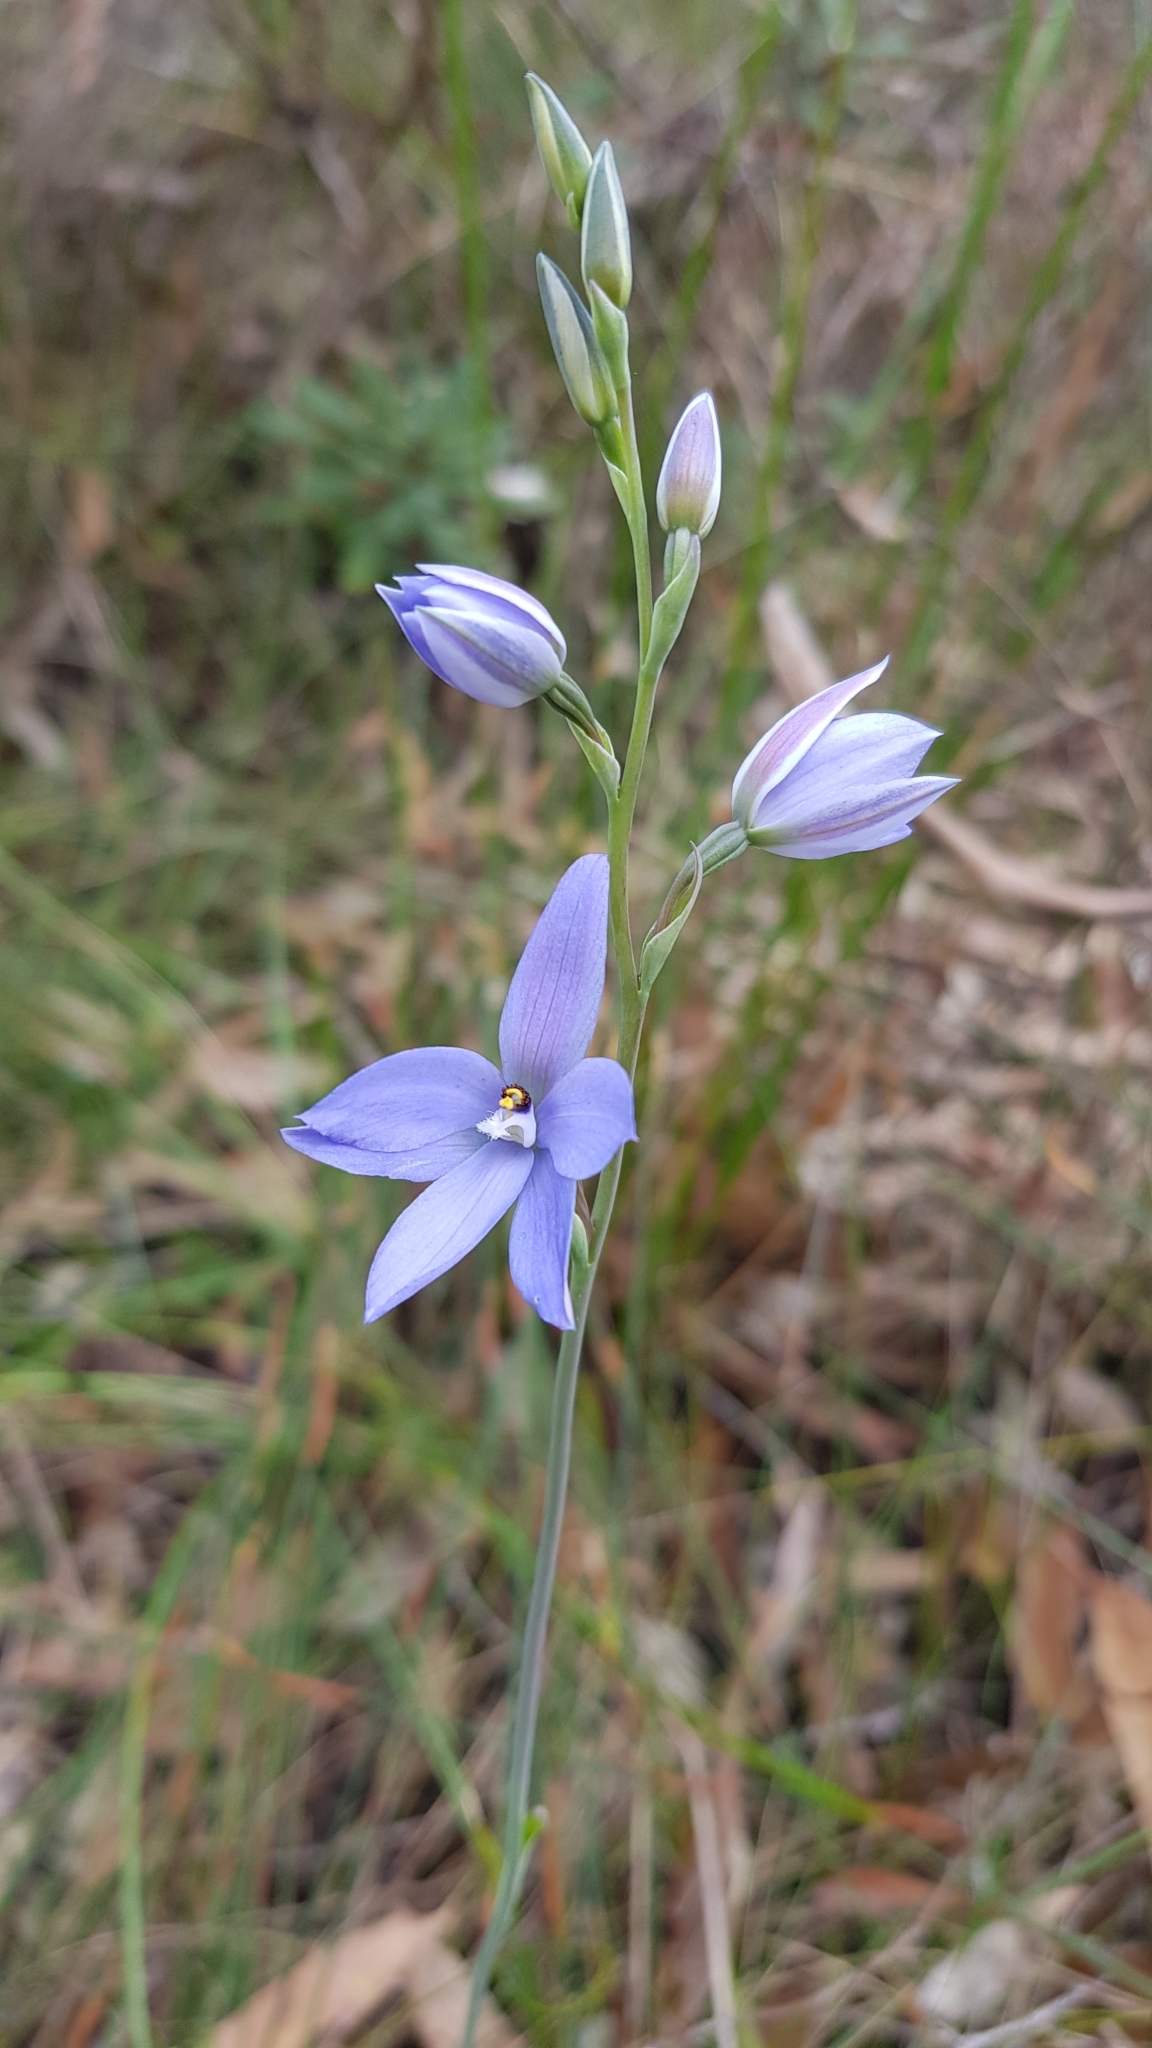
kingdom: Plantae
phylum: Tracheophyta
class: Liliopsida
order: Asparagales
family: Orchidaceae
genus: Thelymitra
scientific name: Thelymitra ixioides
